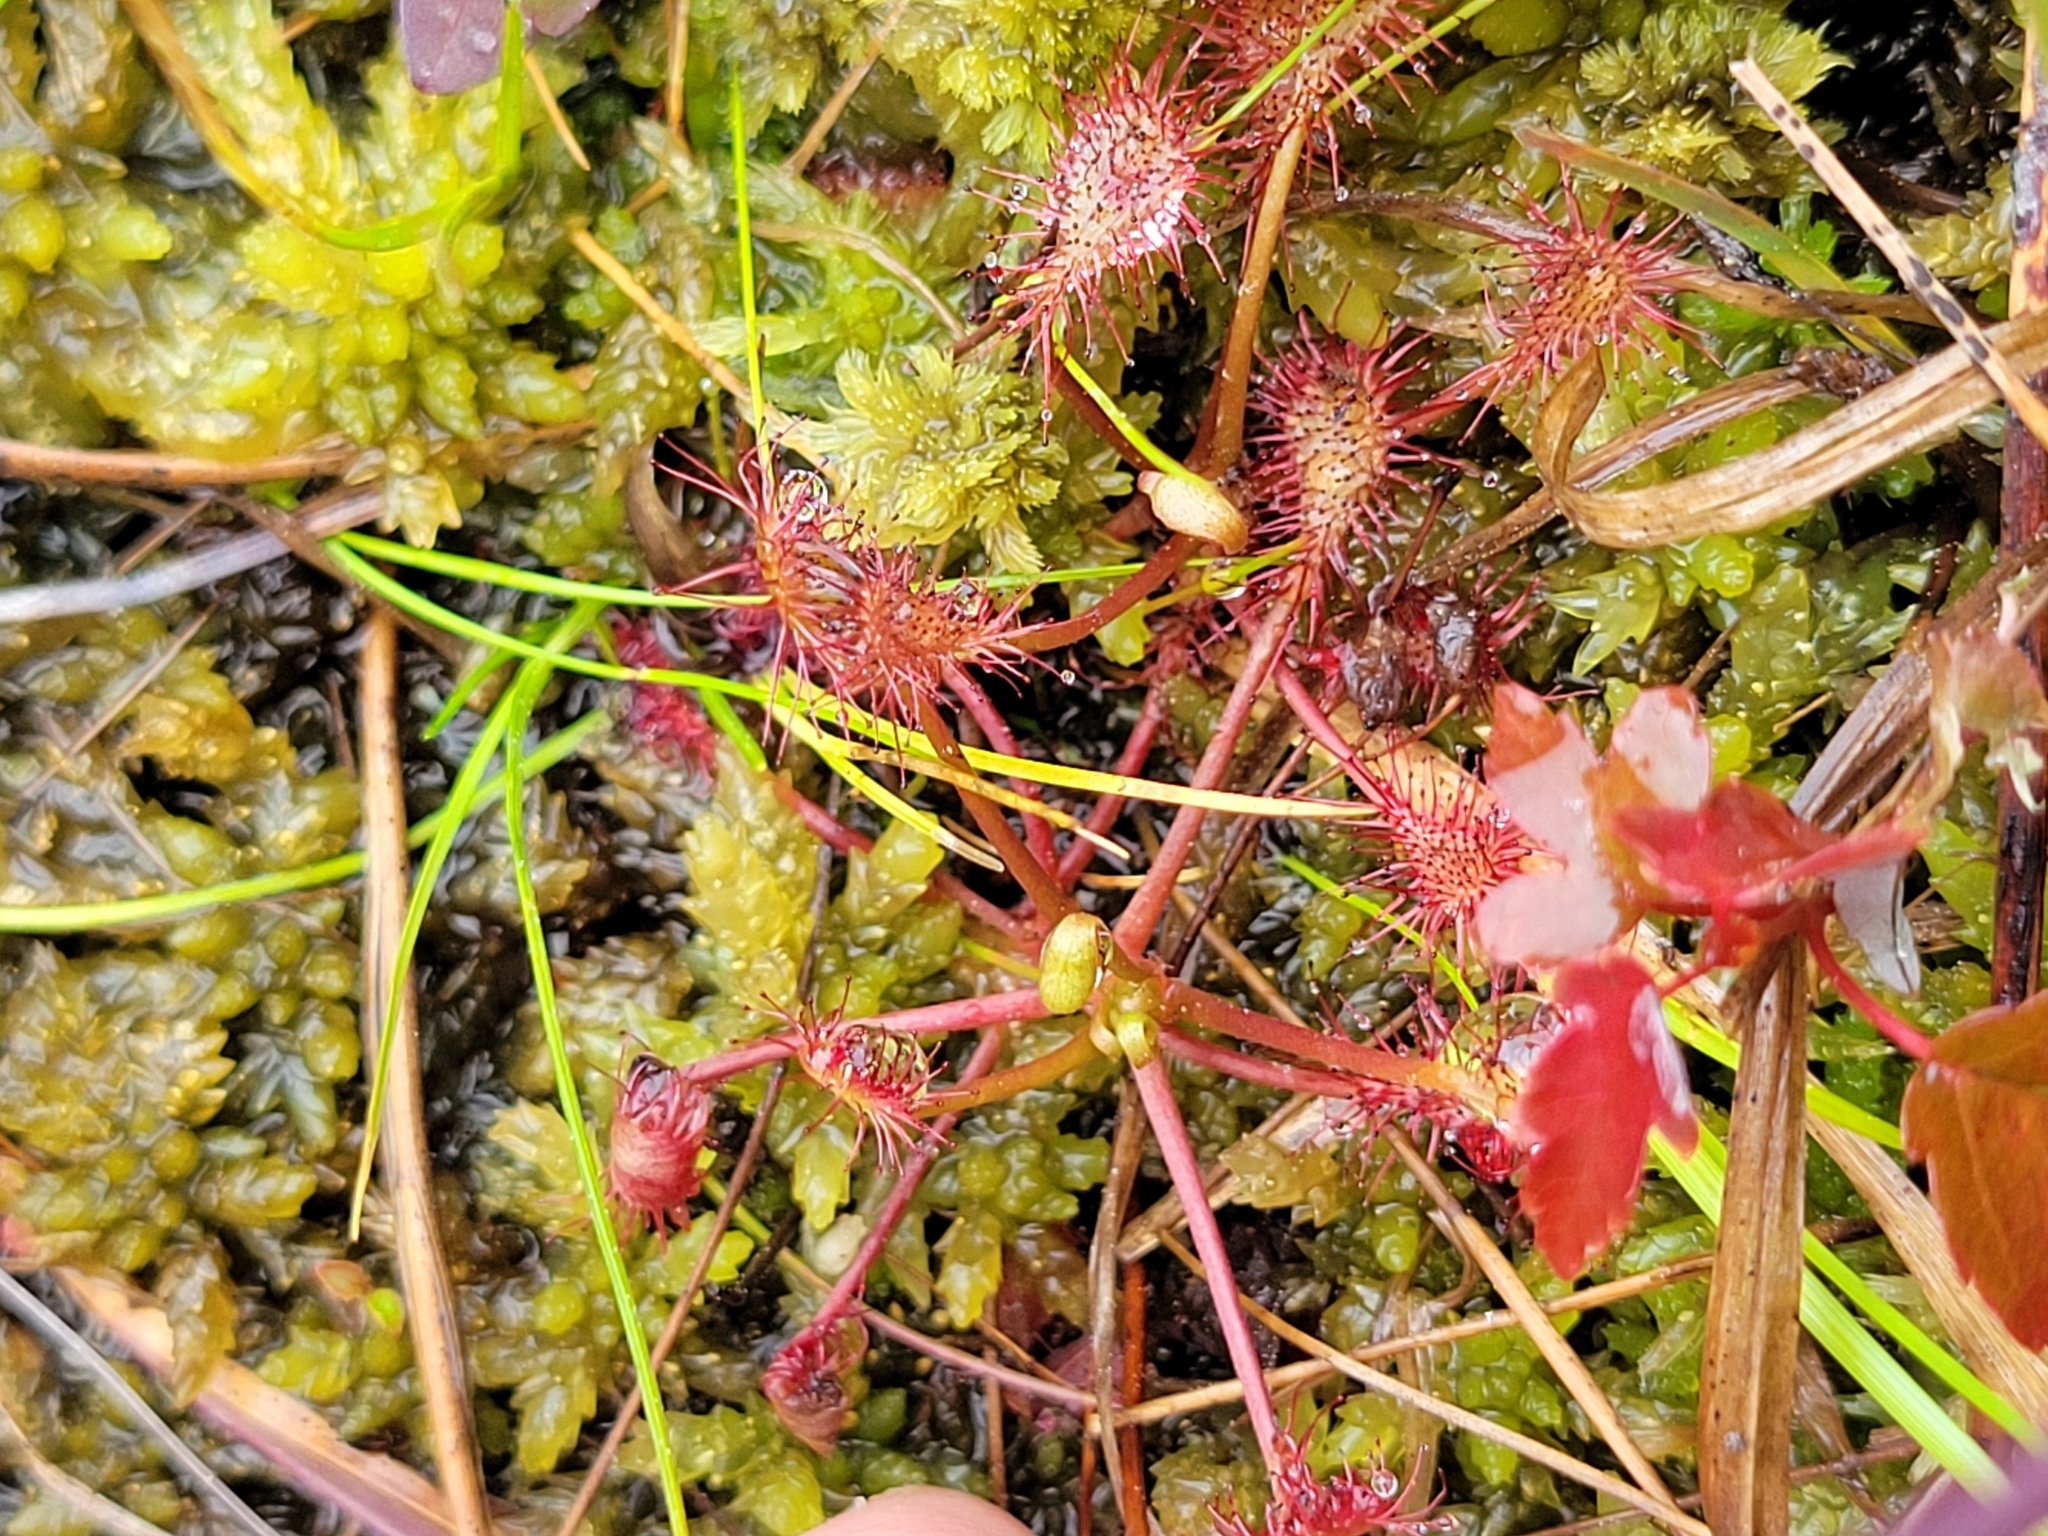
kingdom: Plantae
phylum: Tracheophyta
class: Magnoliopsida
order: Caryophyllales
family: Droseraceae
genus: Drosera
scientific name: Drosera intermedia
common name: Oblong-leaved sundew
